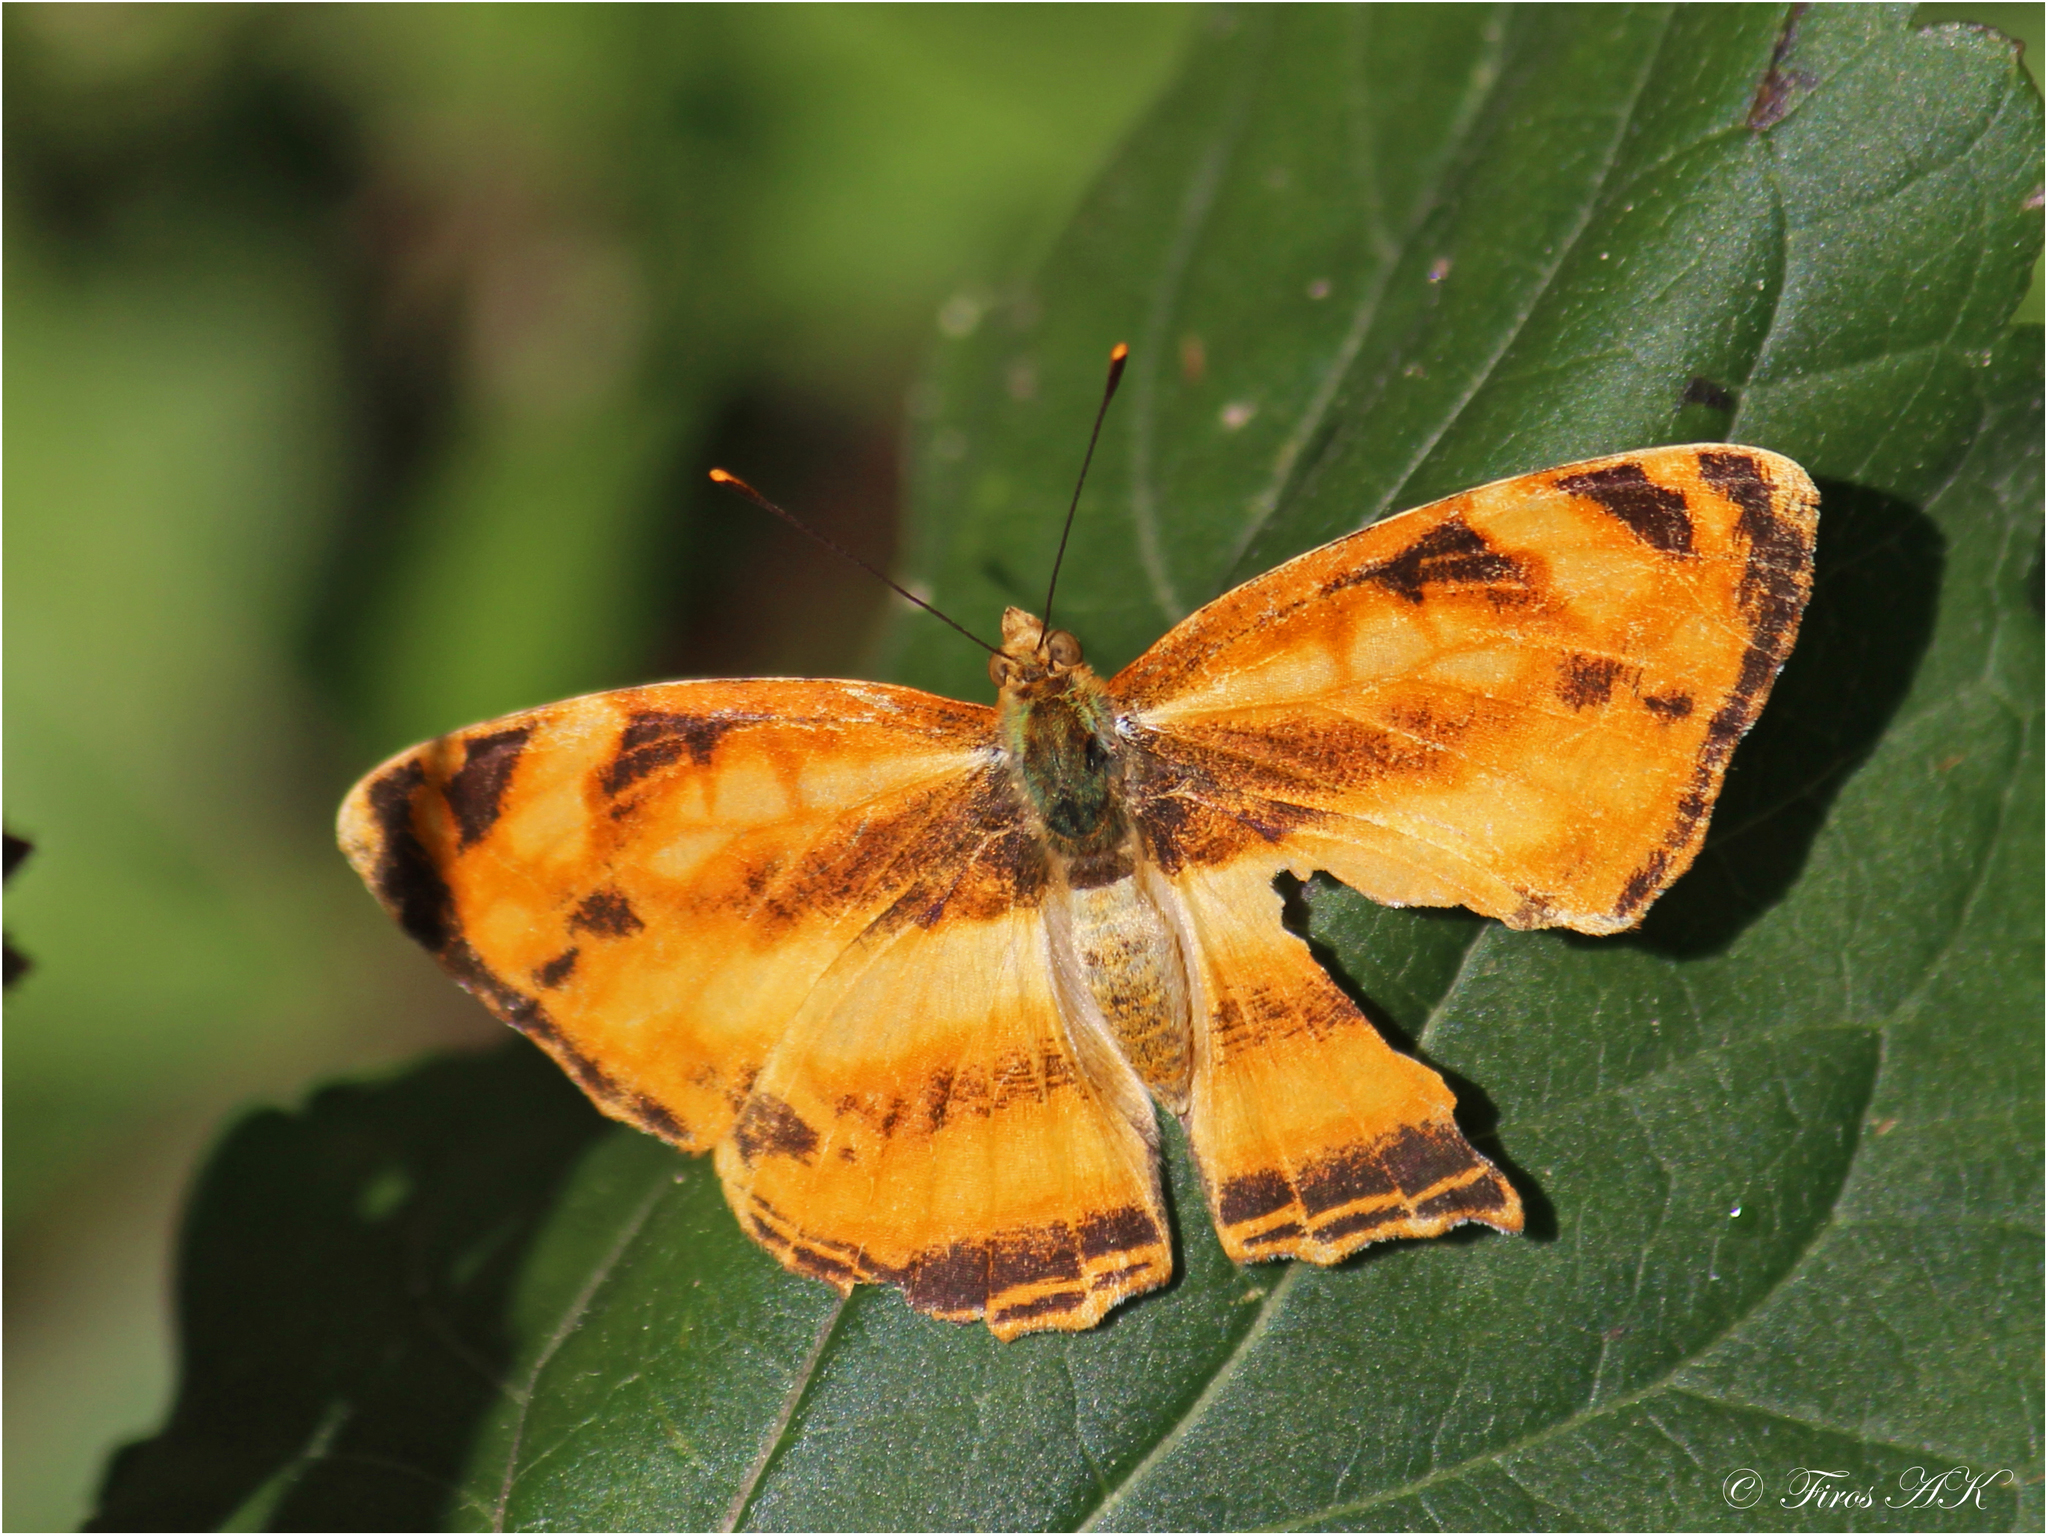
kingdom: Animalia
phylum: Arthropoda
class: Insecta
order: Lepidoptera
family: Nymphalidae
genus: Symbrenthia
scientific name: Symbrenthia hypselis
